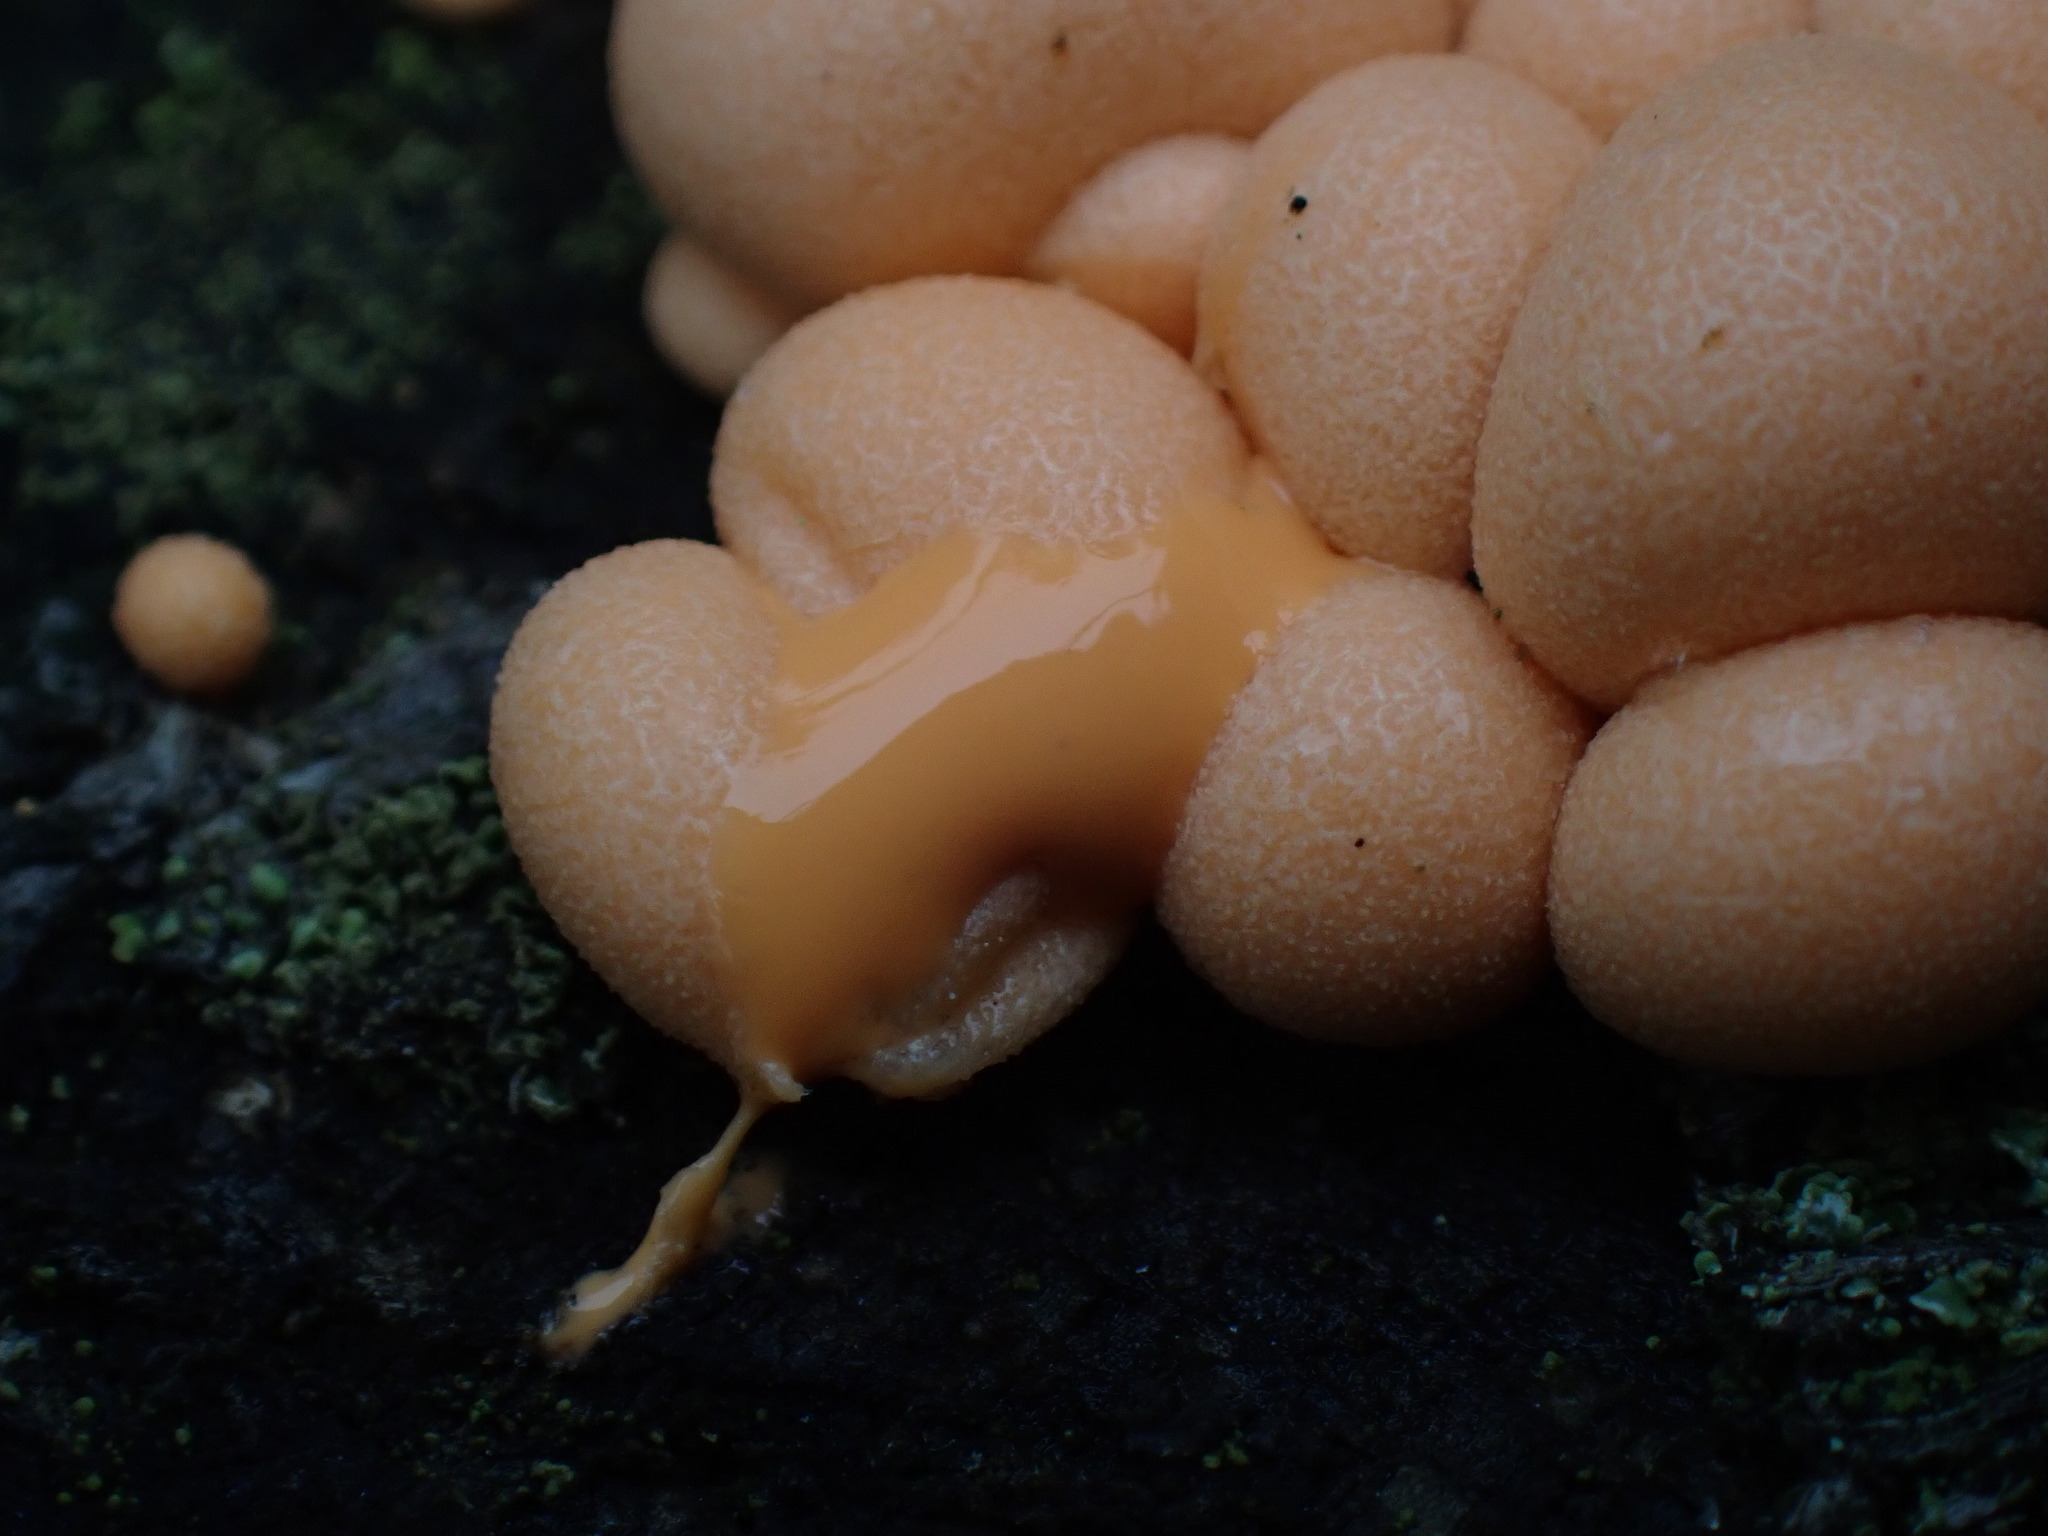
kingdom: Protozoa
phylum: Mycetozoa
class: Myxomycetes
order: Cribrariales
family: Tubiferaceae
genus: Lycogala
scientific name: Lycogala epidendrum
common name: Wolf's milk
